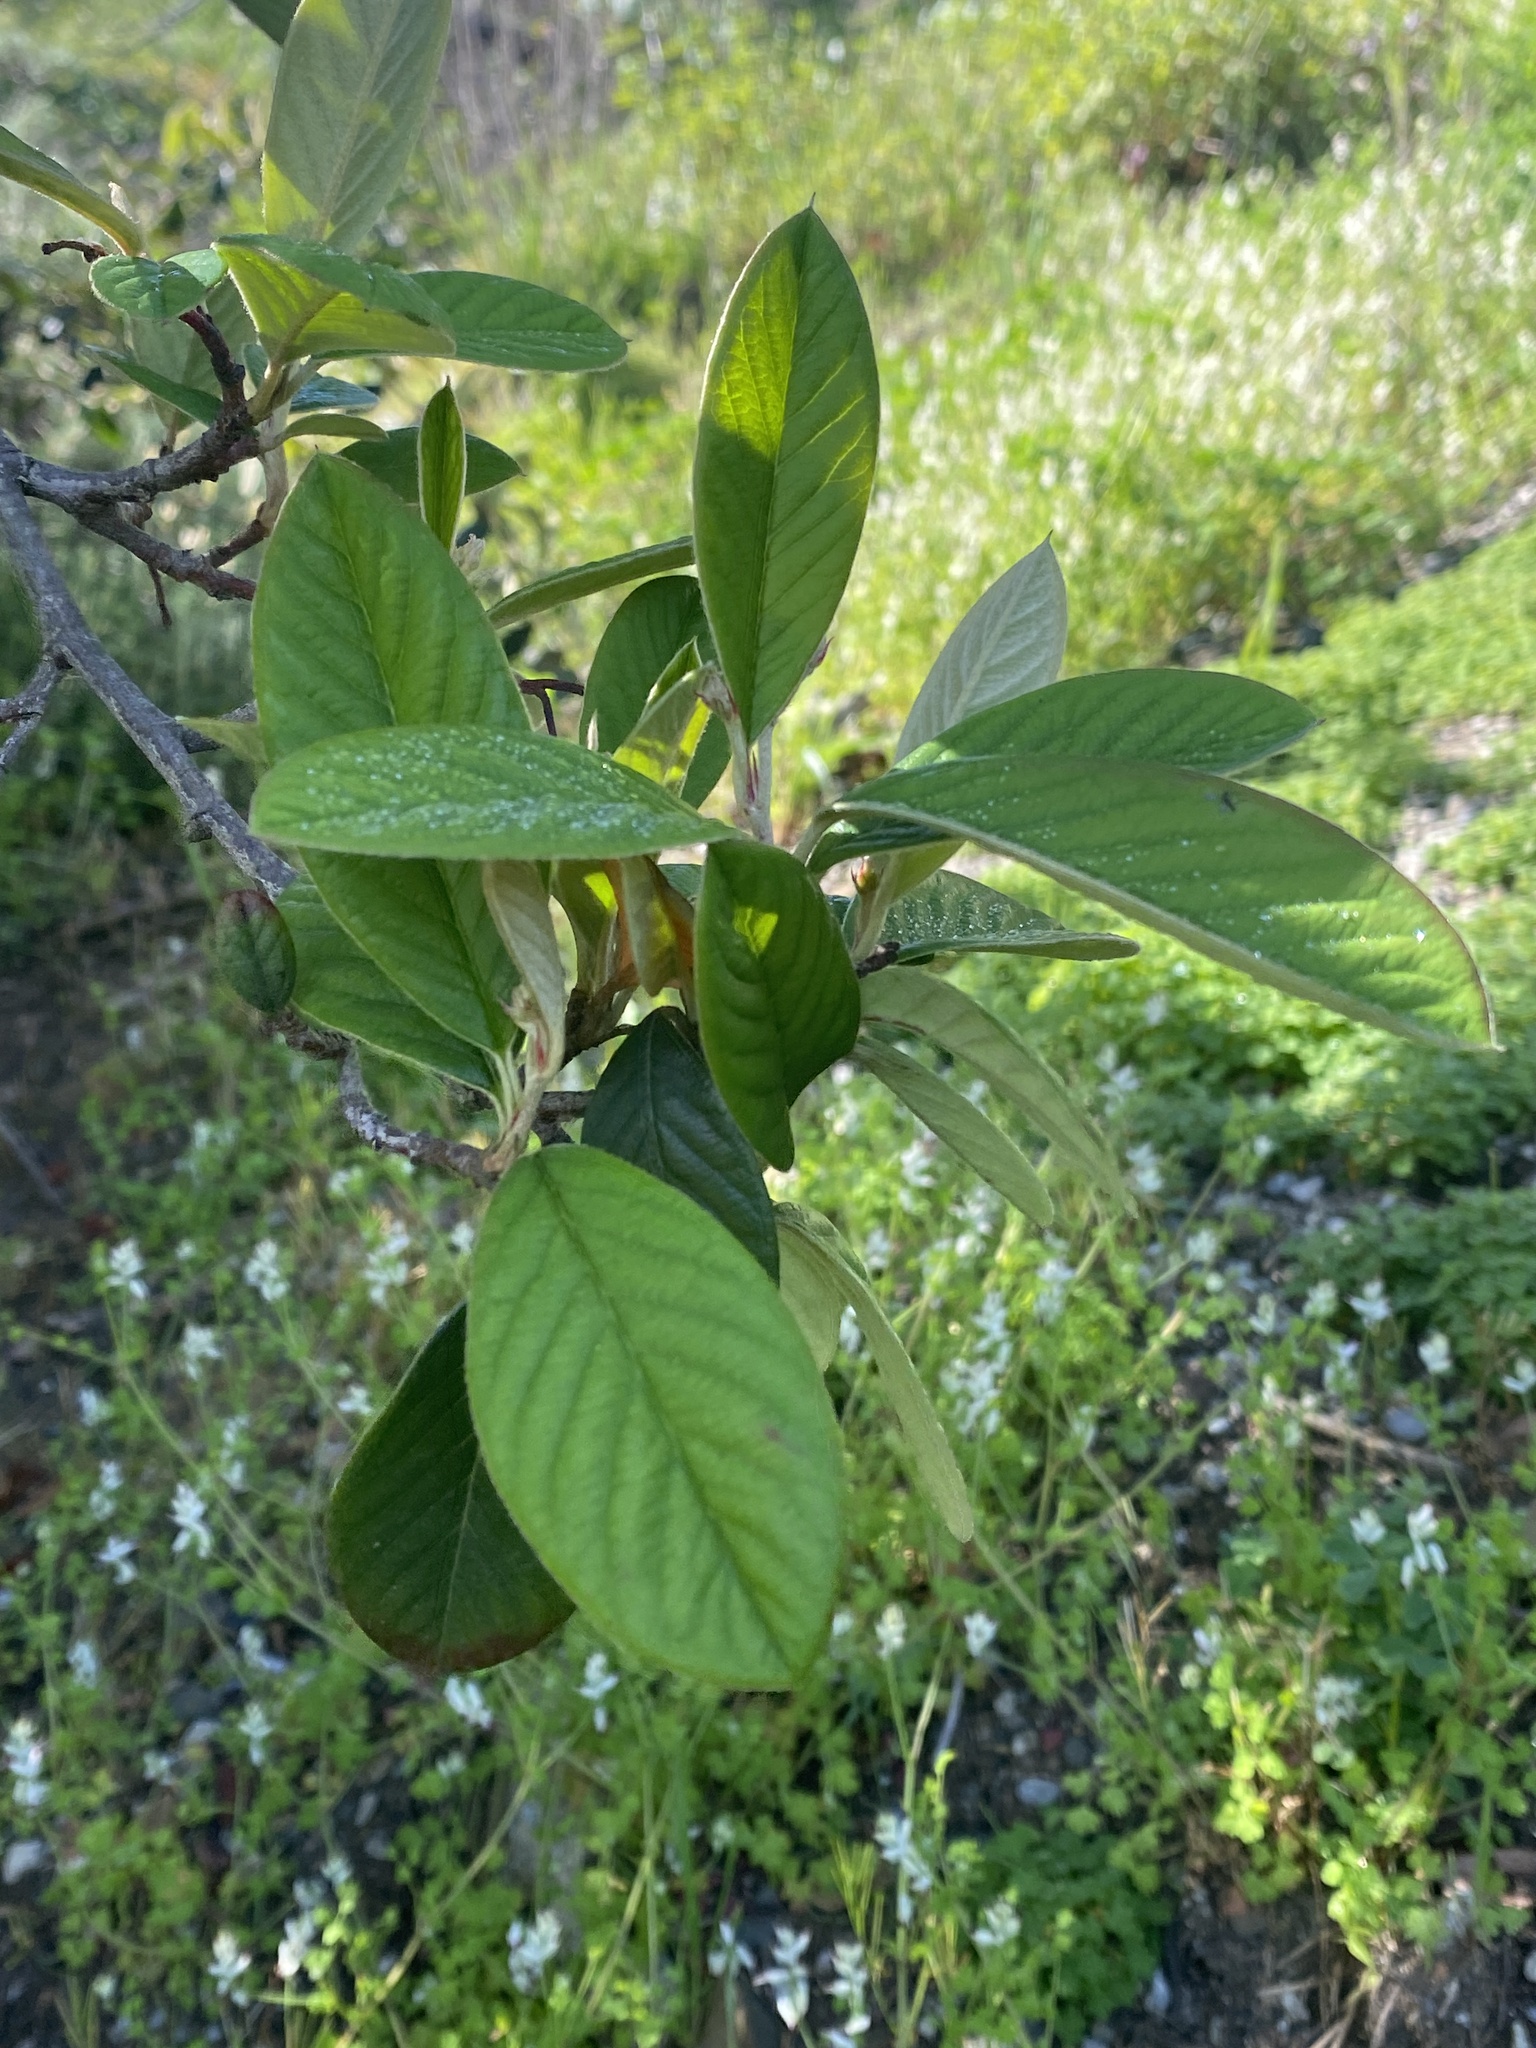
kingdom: Plantae
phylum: Tracheophyta
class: Magnoliopsida
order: Rosales
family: Rosaceae
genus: Cotoneaster
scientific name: Cotoneaster coriaceus
